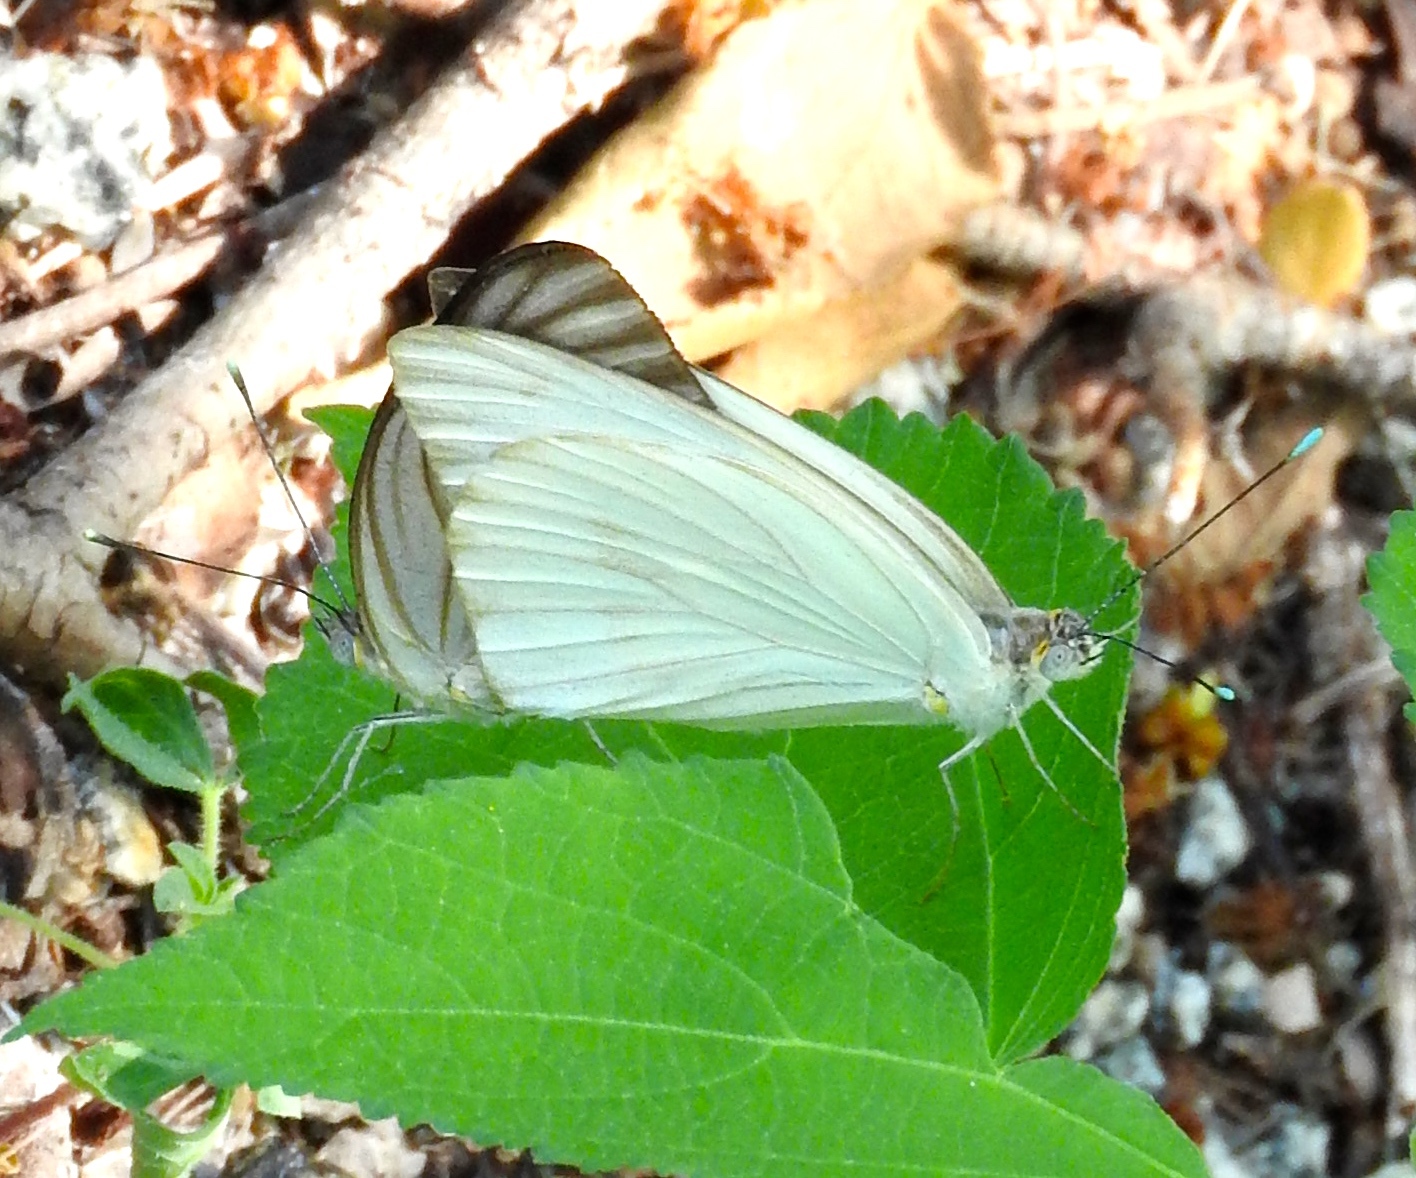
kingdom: Animalia
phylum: Arthropoda
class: Insecta
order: Lepidoptera
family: Pieridae
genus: Ascia
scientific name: Ascia monuste
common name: Great southern white
